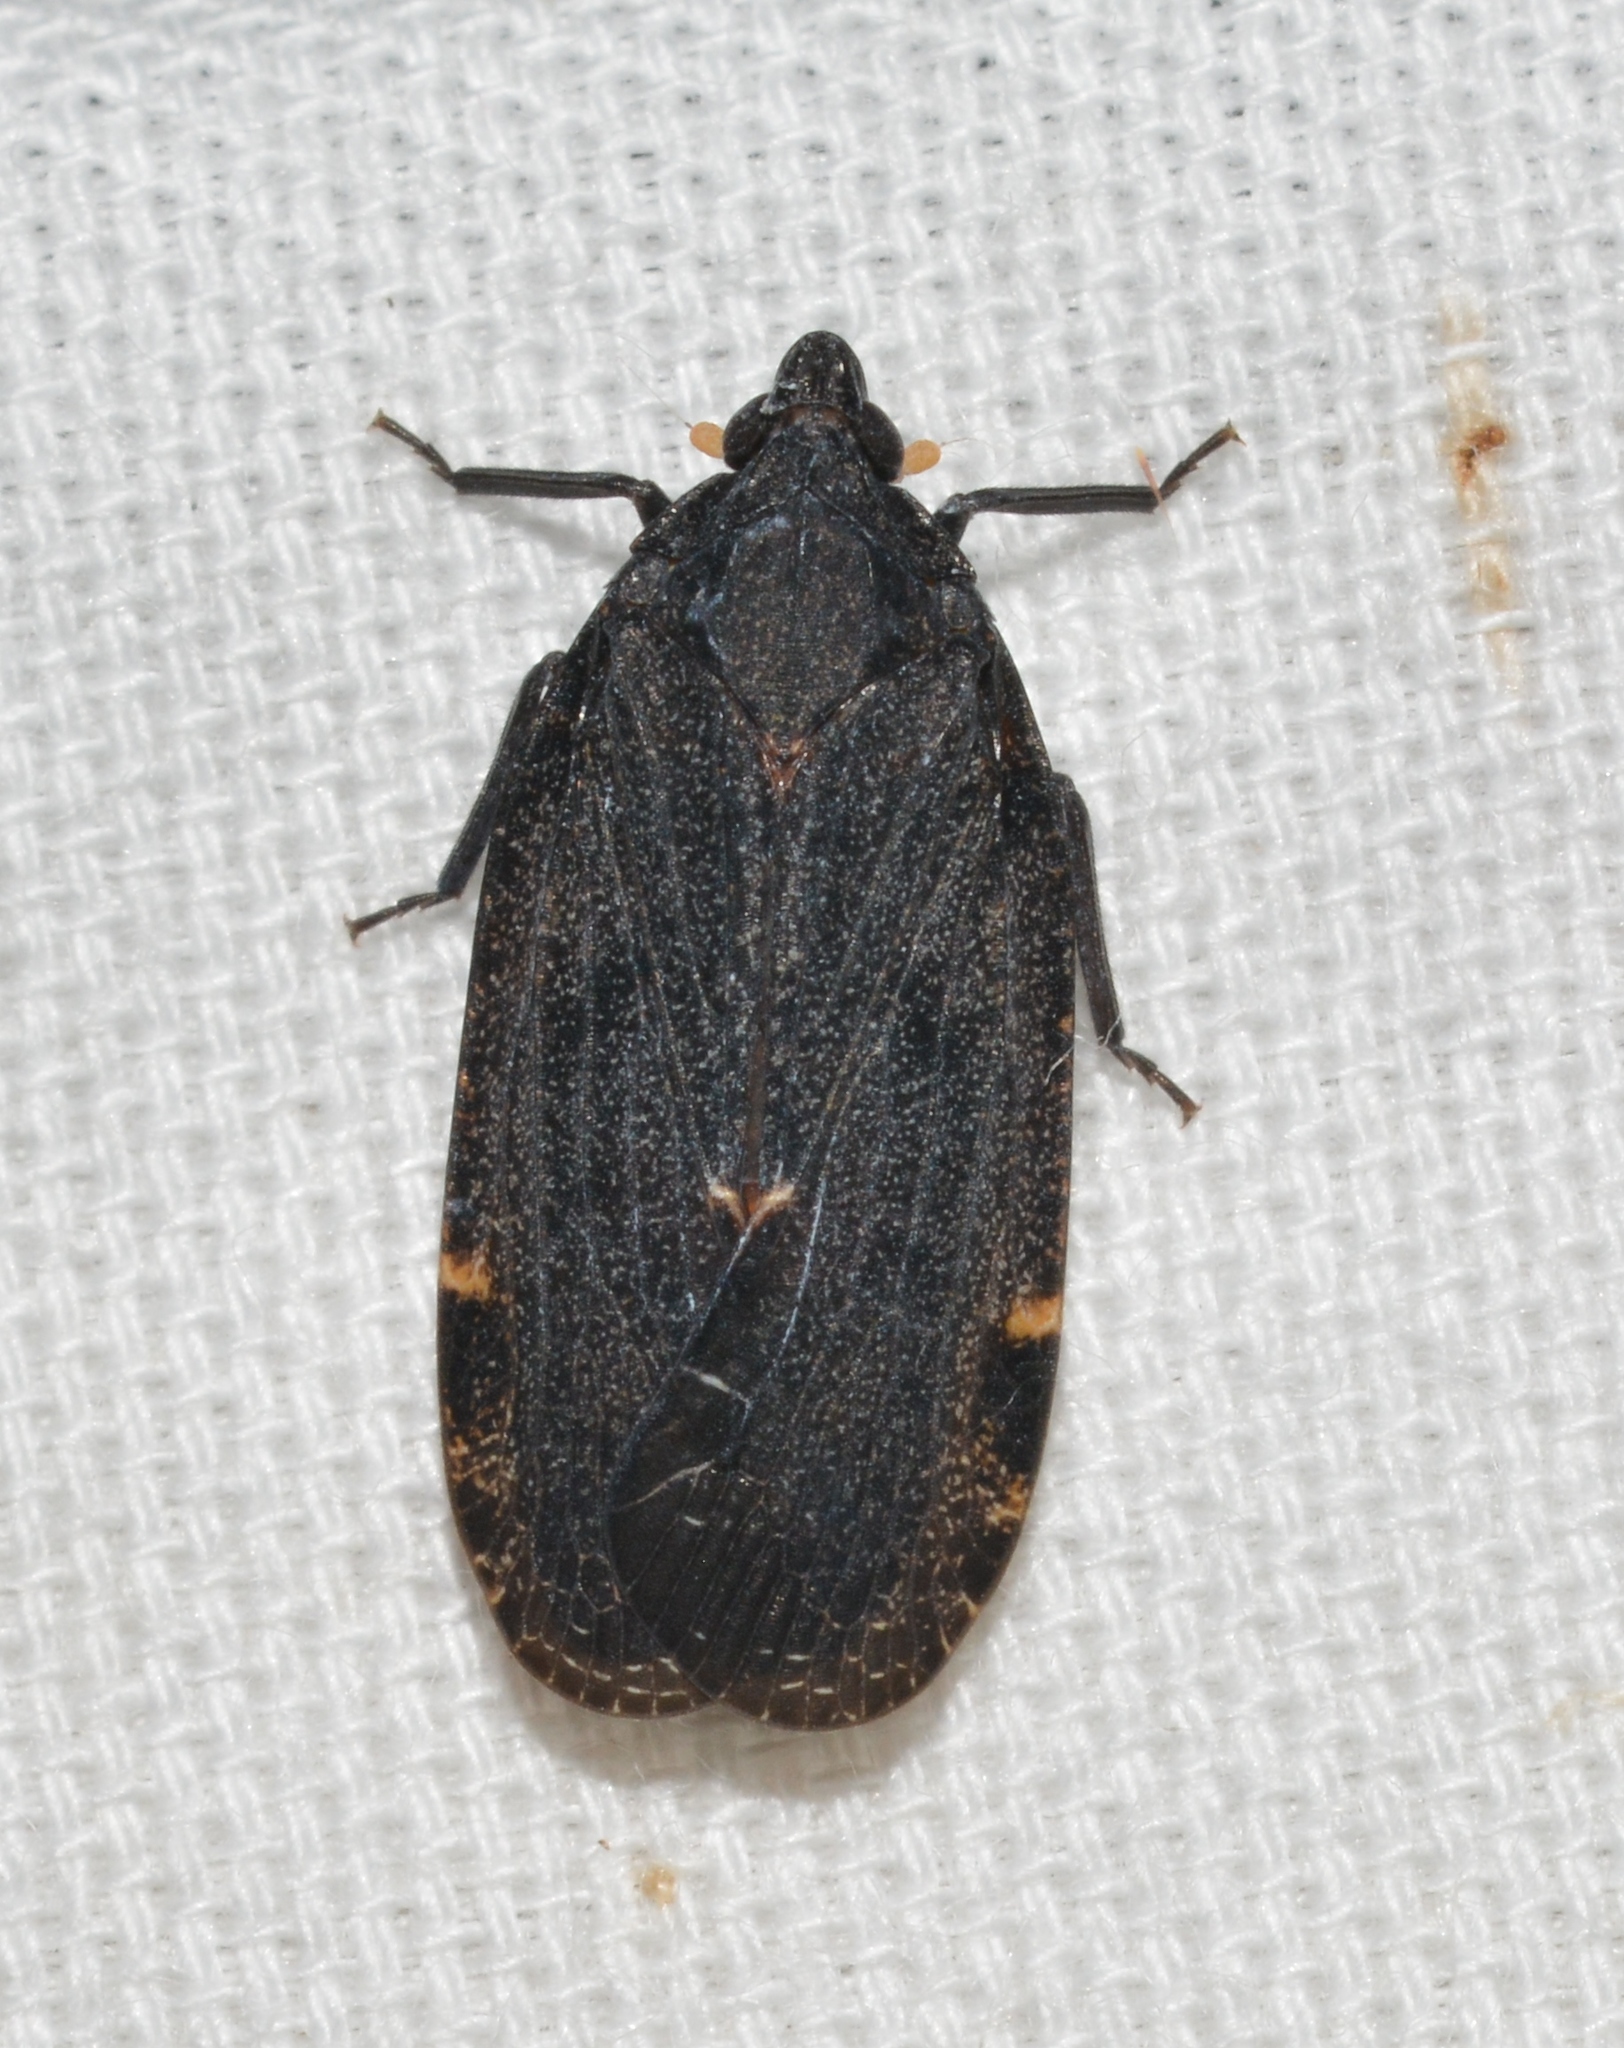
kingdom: Animalia
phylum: Arthropoda
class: Insecta
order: Hemiptera
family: Achilidae
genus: Cixidia
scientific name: Cixidia opaca
